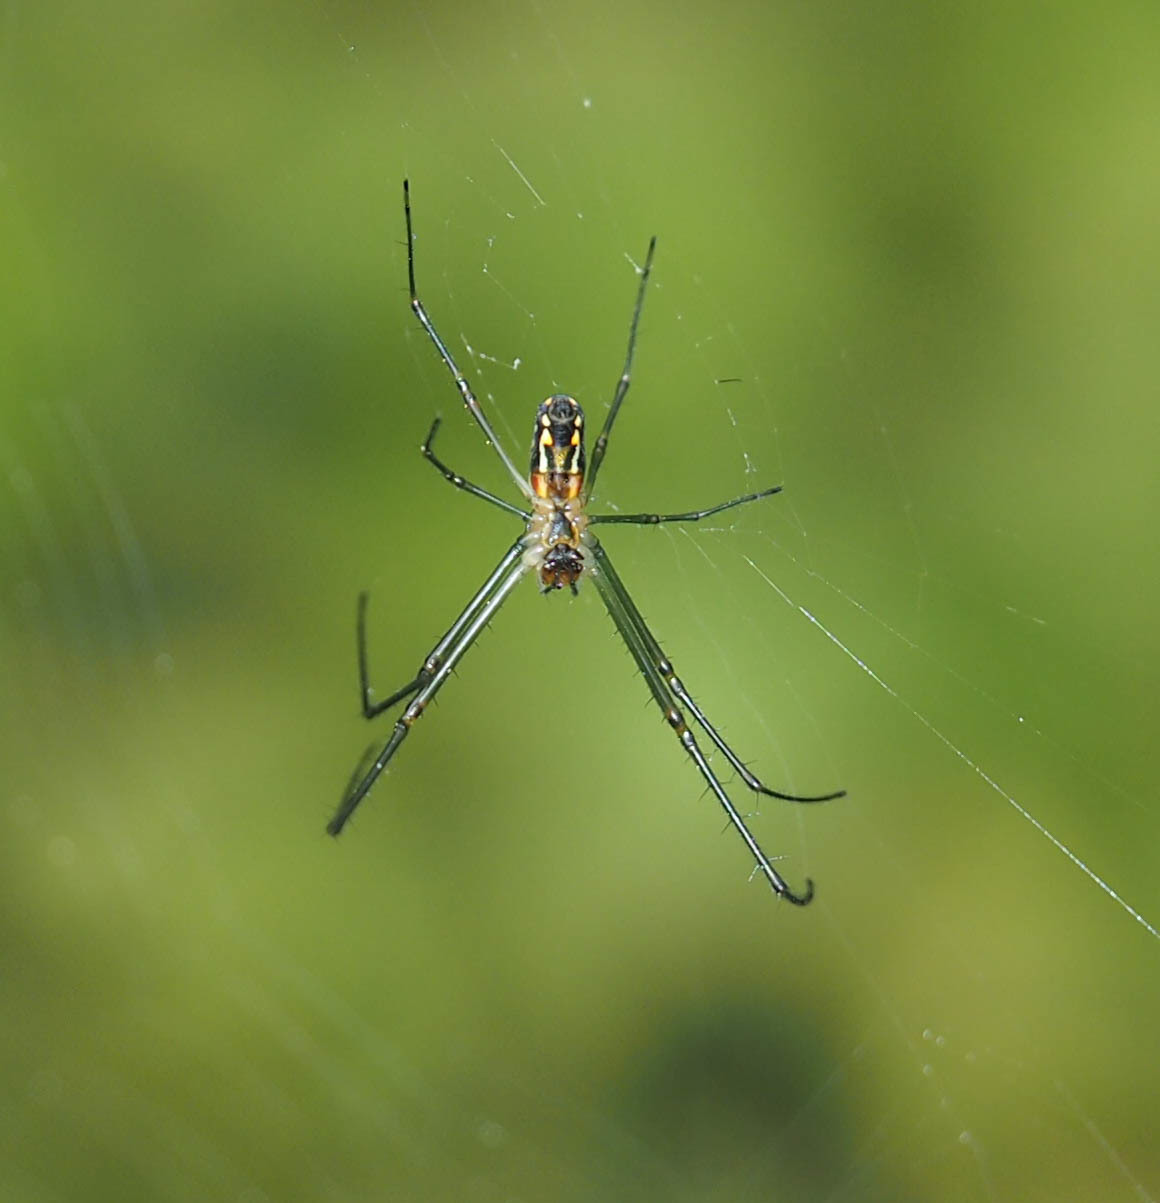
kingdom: Animalia
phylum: Arthropoda
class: Arachnida
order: Araneae
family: Tetragnathidae
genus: Leucauge
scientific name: Leucauge argyra
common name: Longjawed orb weavers
